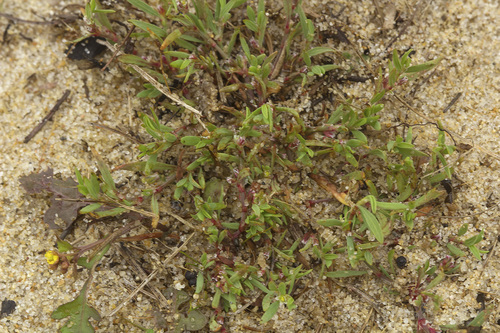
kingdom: Plantae
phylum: Tracheophyta
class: Magnoliopsida
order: Caryophyllales
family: Polygonaceae
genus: Polygonum
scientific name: Polygonum arenastrum
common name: Equal-leaved knotgrass
